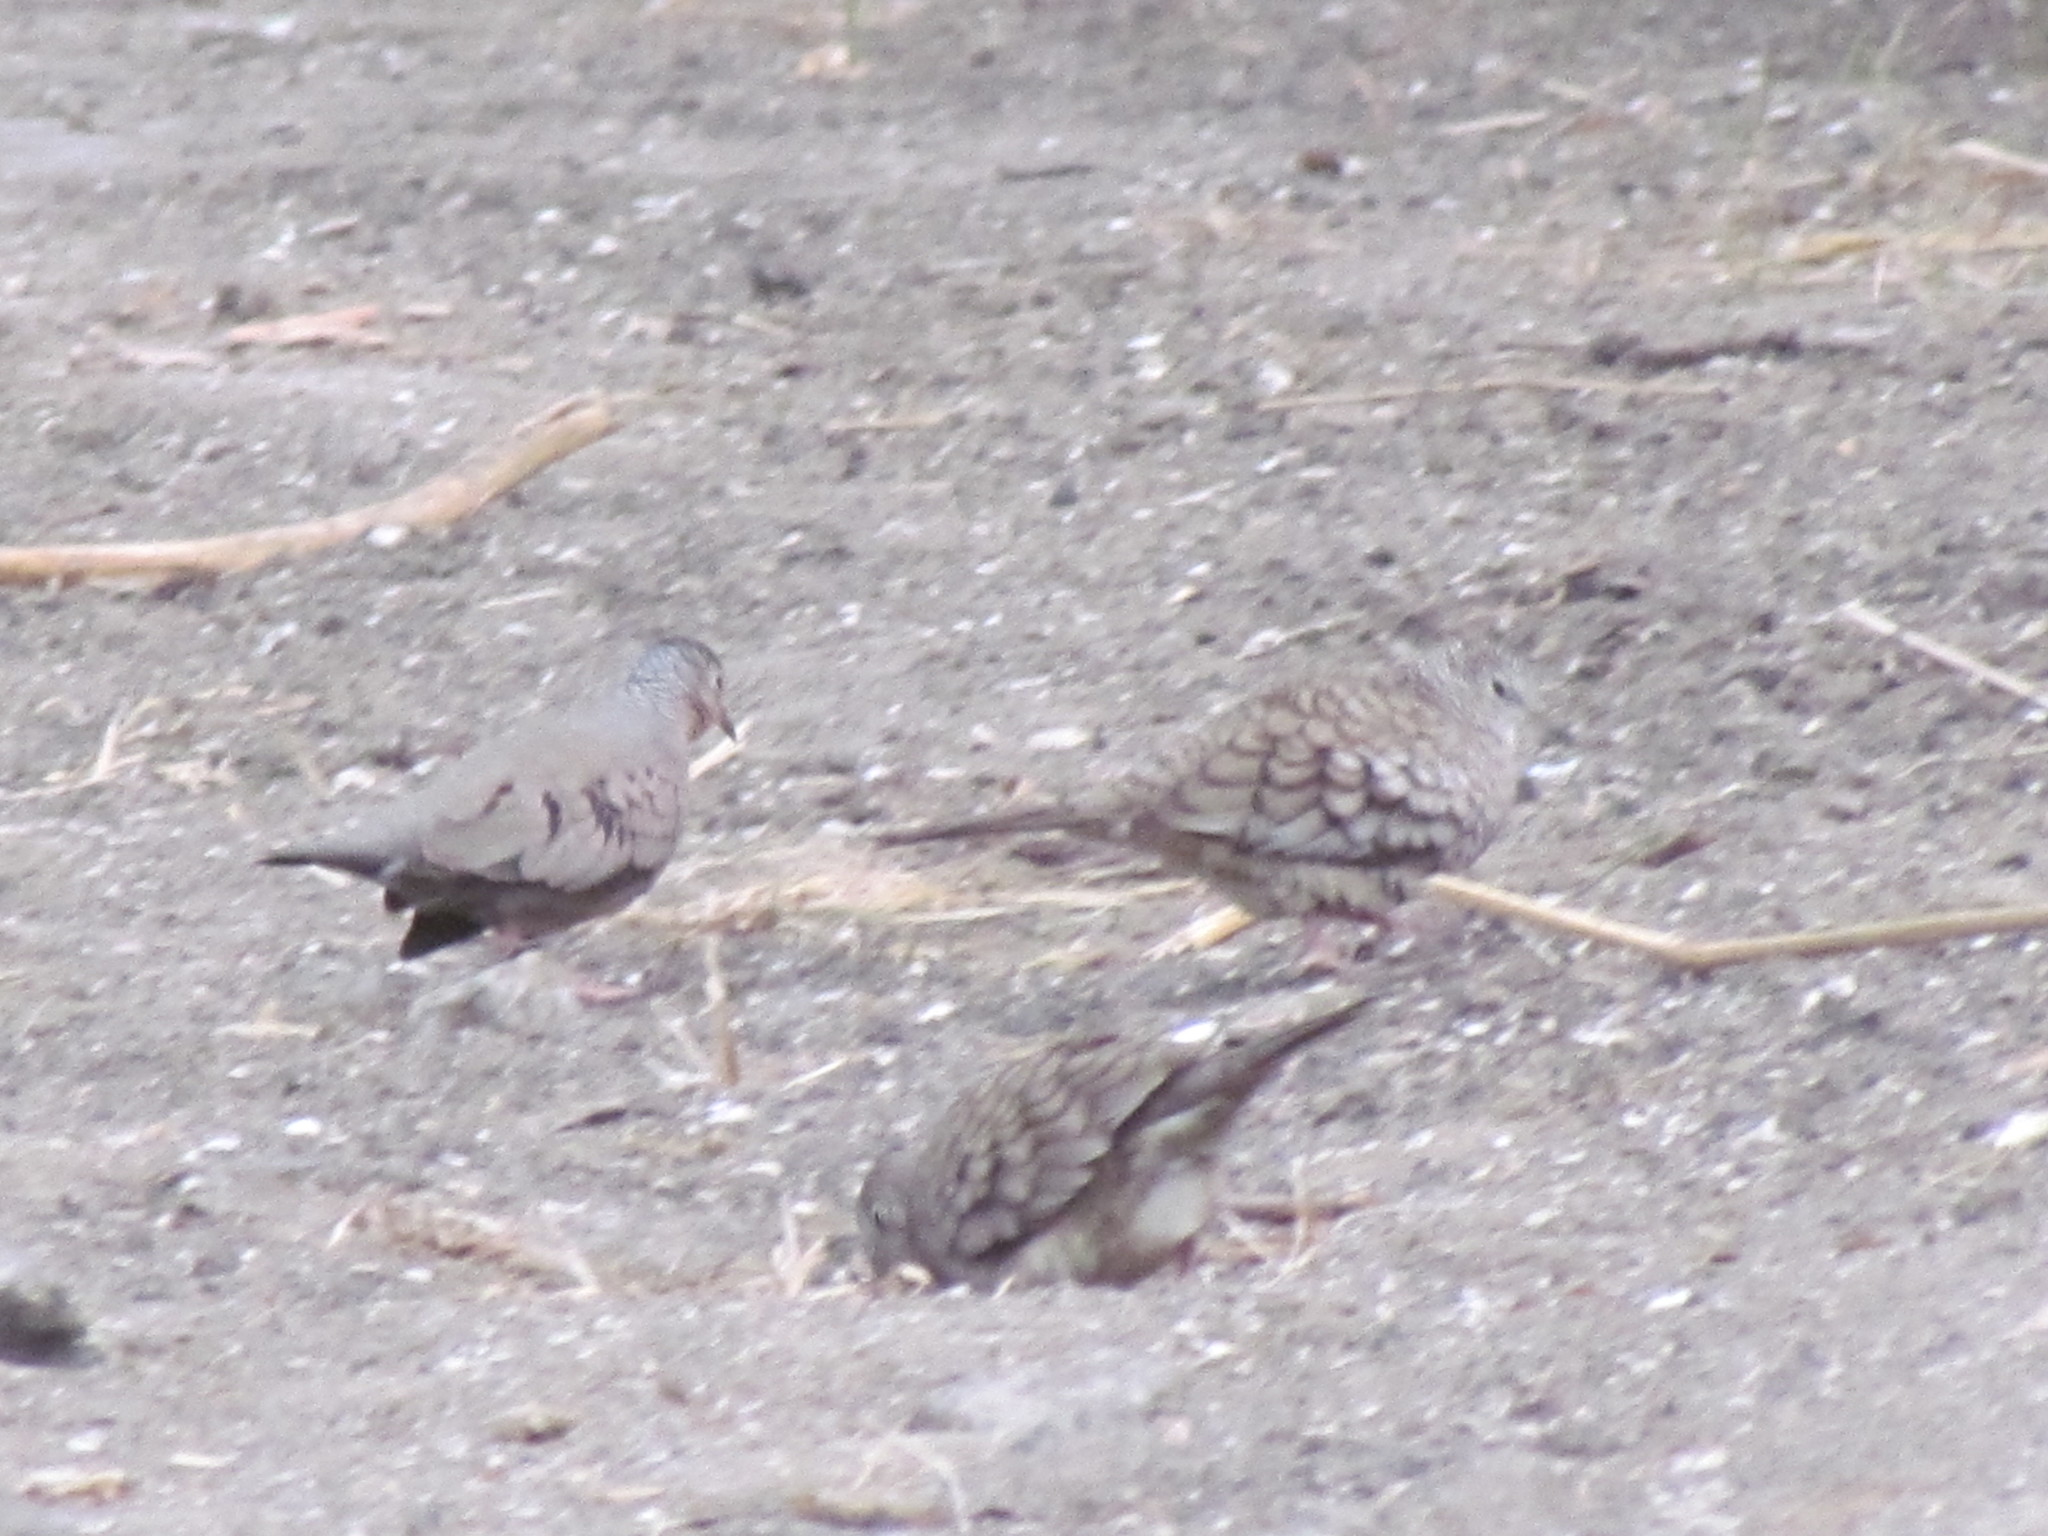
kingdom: Animalia
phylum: Chordata
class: Aves
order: Columbiformes
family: Columbidae
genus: Columbina
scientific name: Columbina inca
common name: Inca dove
